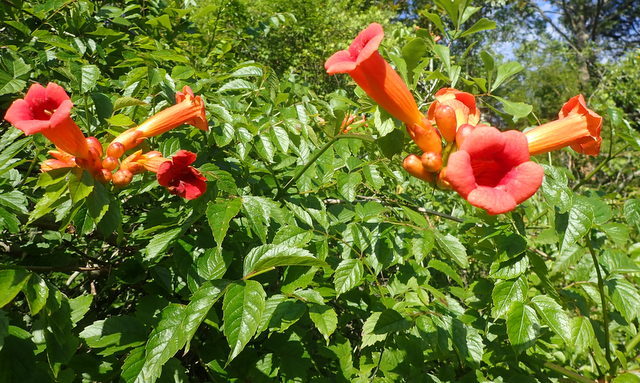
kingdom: Plantae
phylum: Tracheophyta
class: Magnoliopsida
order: Lamiales
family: Bignoniaceae
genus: Campsis
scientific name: Campsis radicans
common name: Trumpet-creeper
